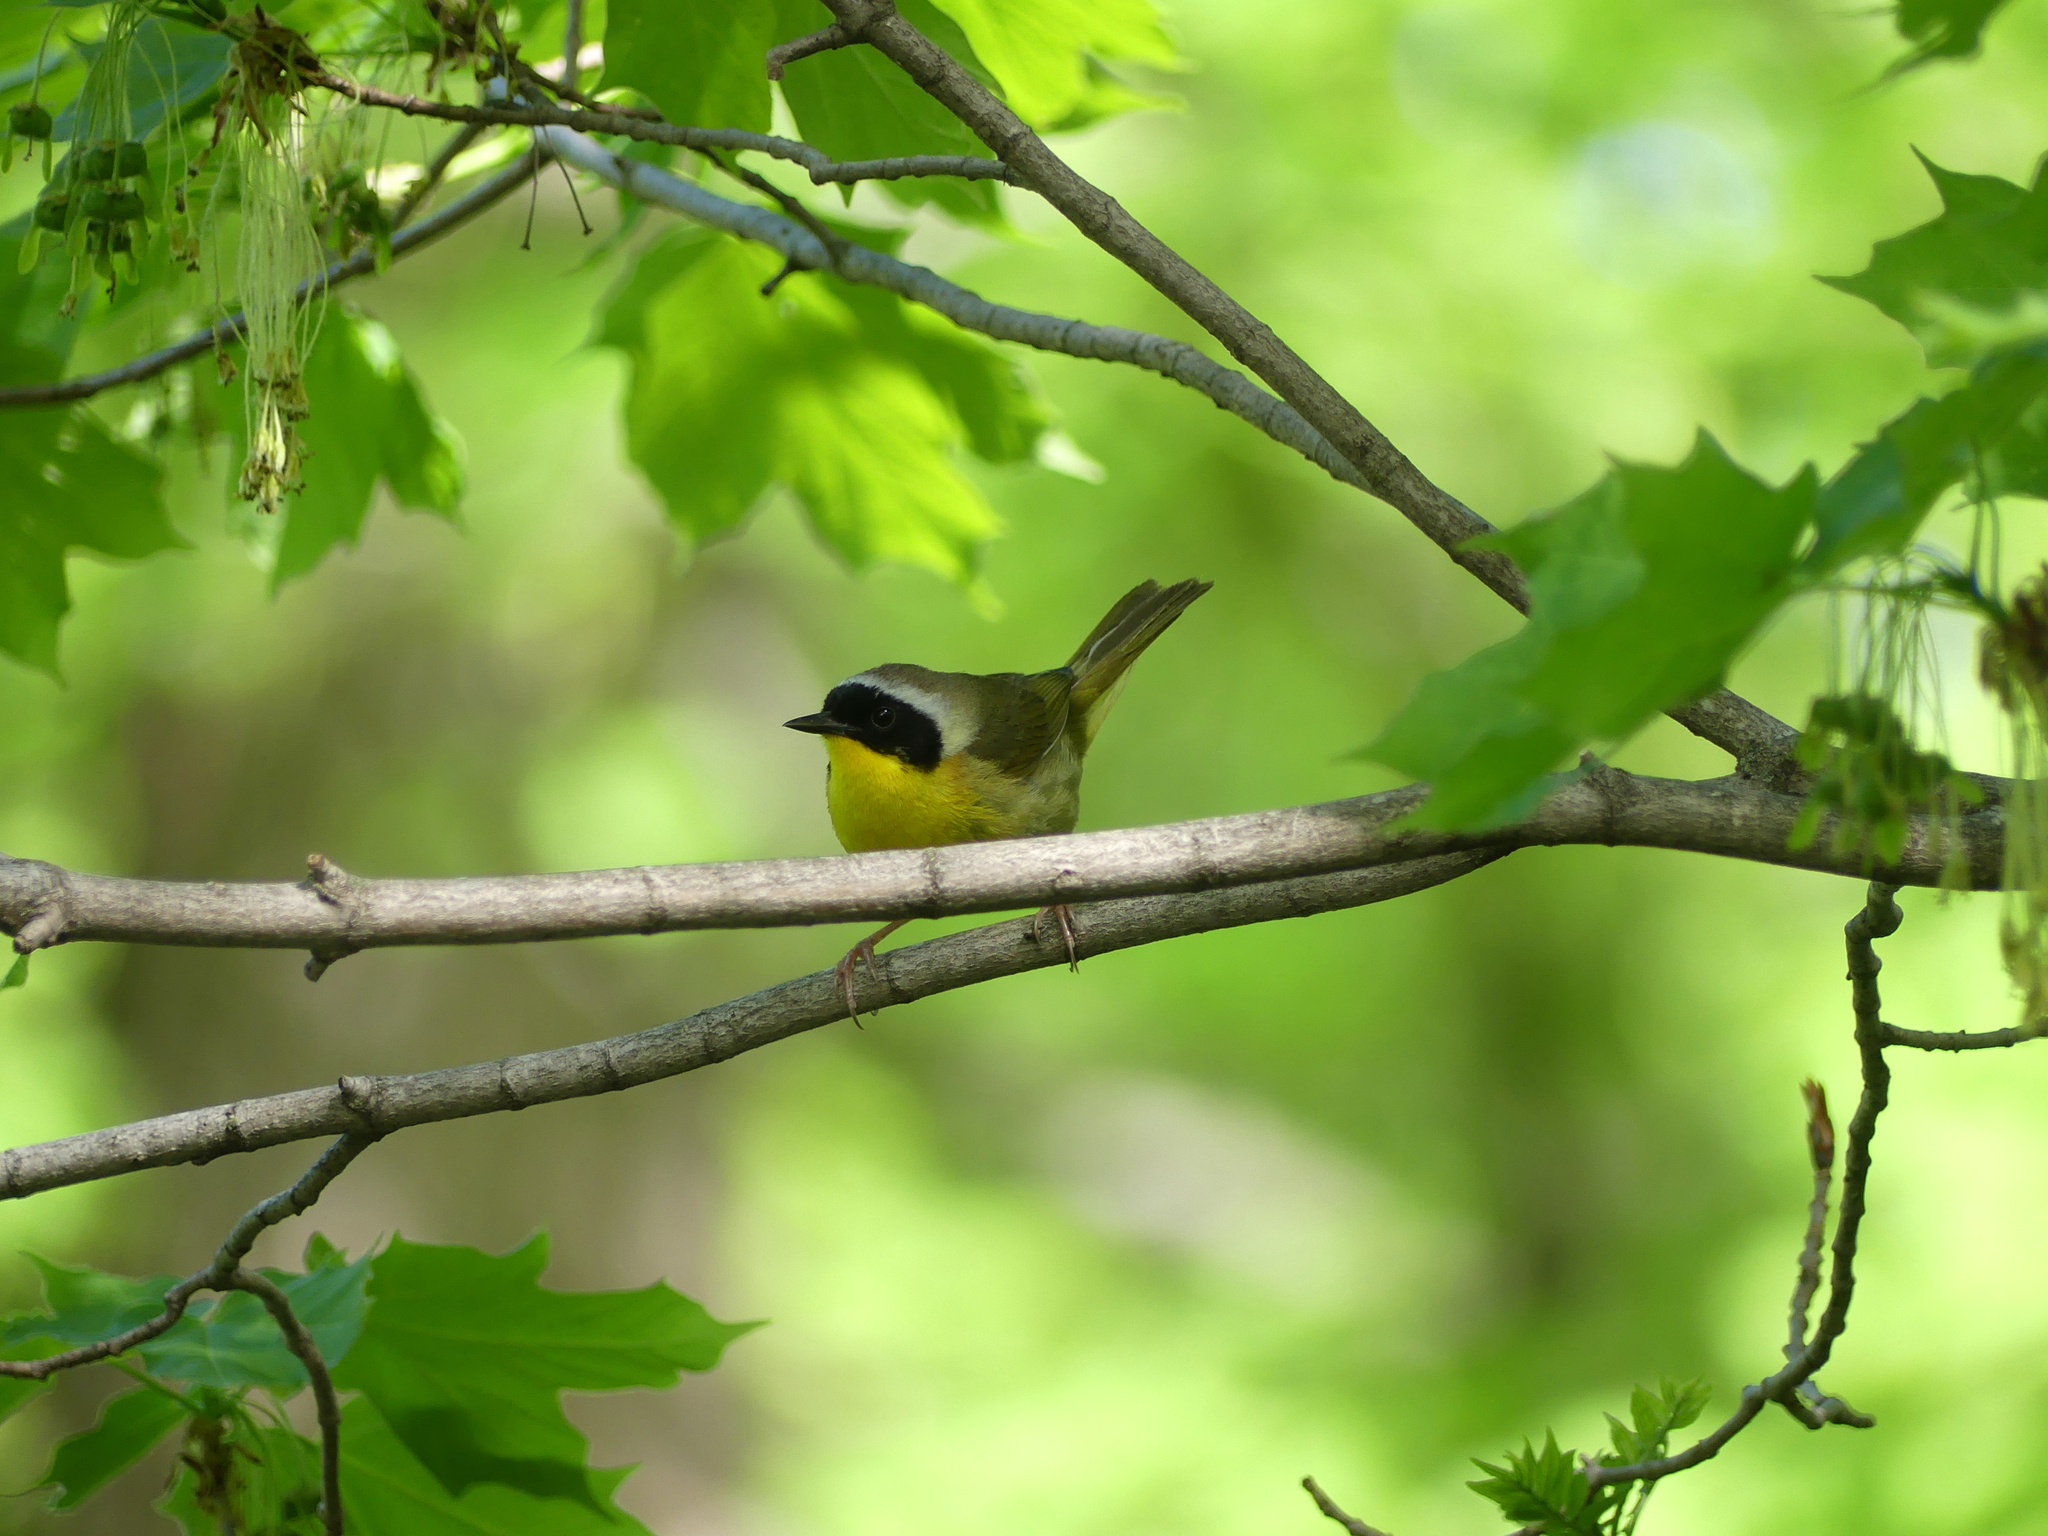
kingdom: Animalia
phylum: Chordata
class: Aves
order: Passeriformes
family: Parulidae
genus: Geothlypis
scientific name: Geothlypis trichas
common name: Common yellowthroat
